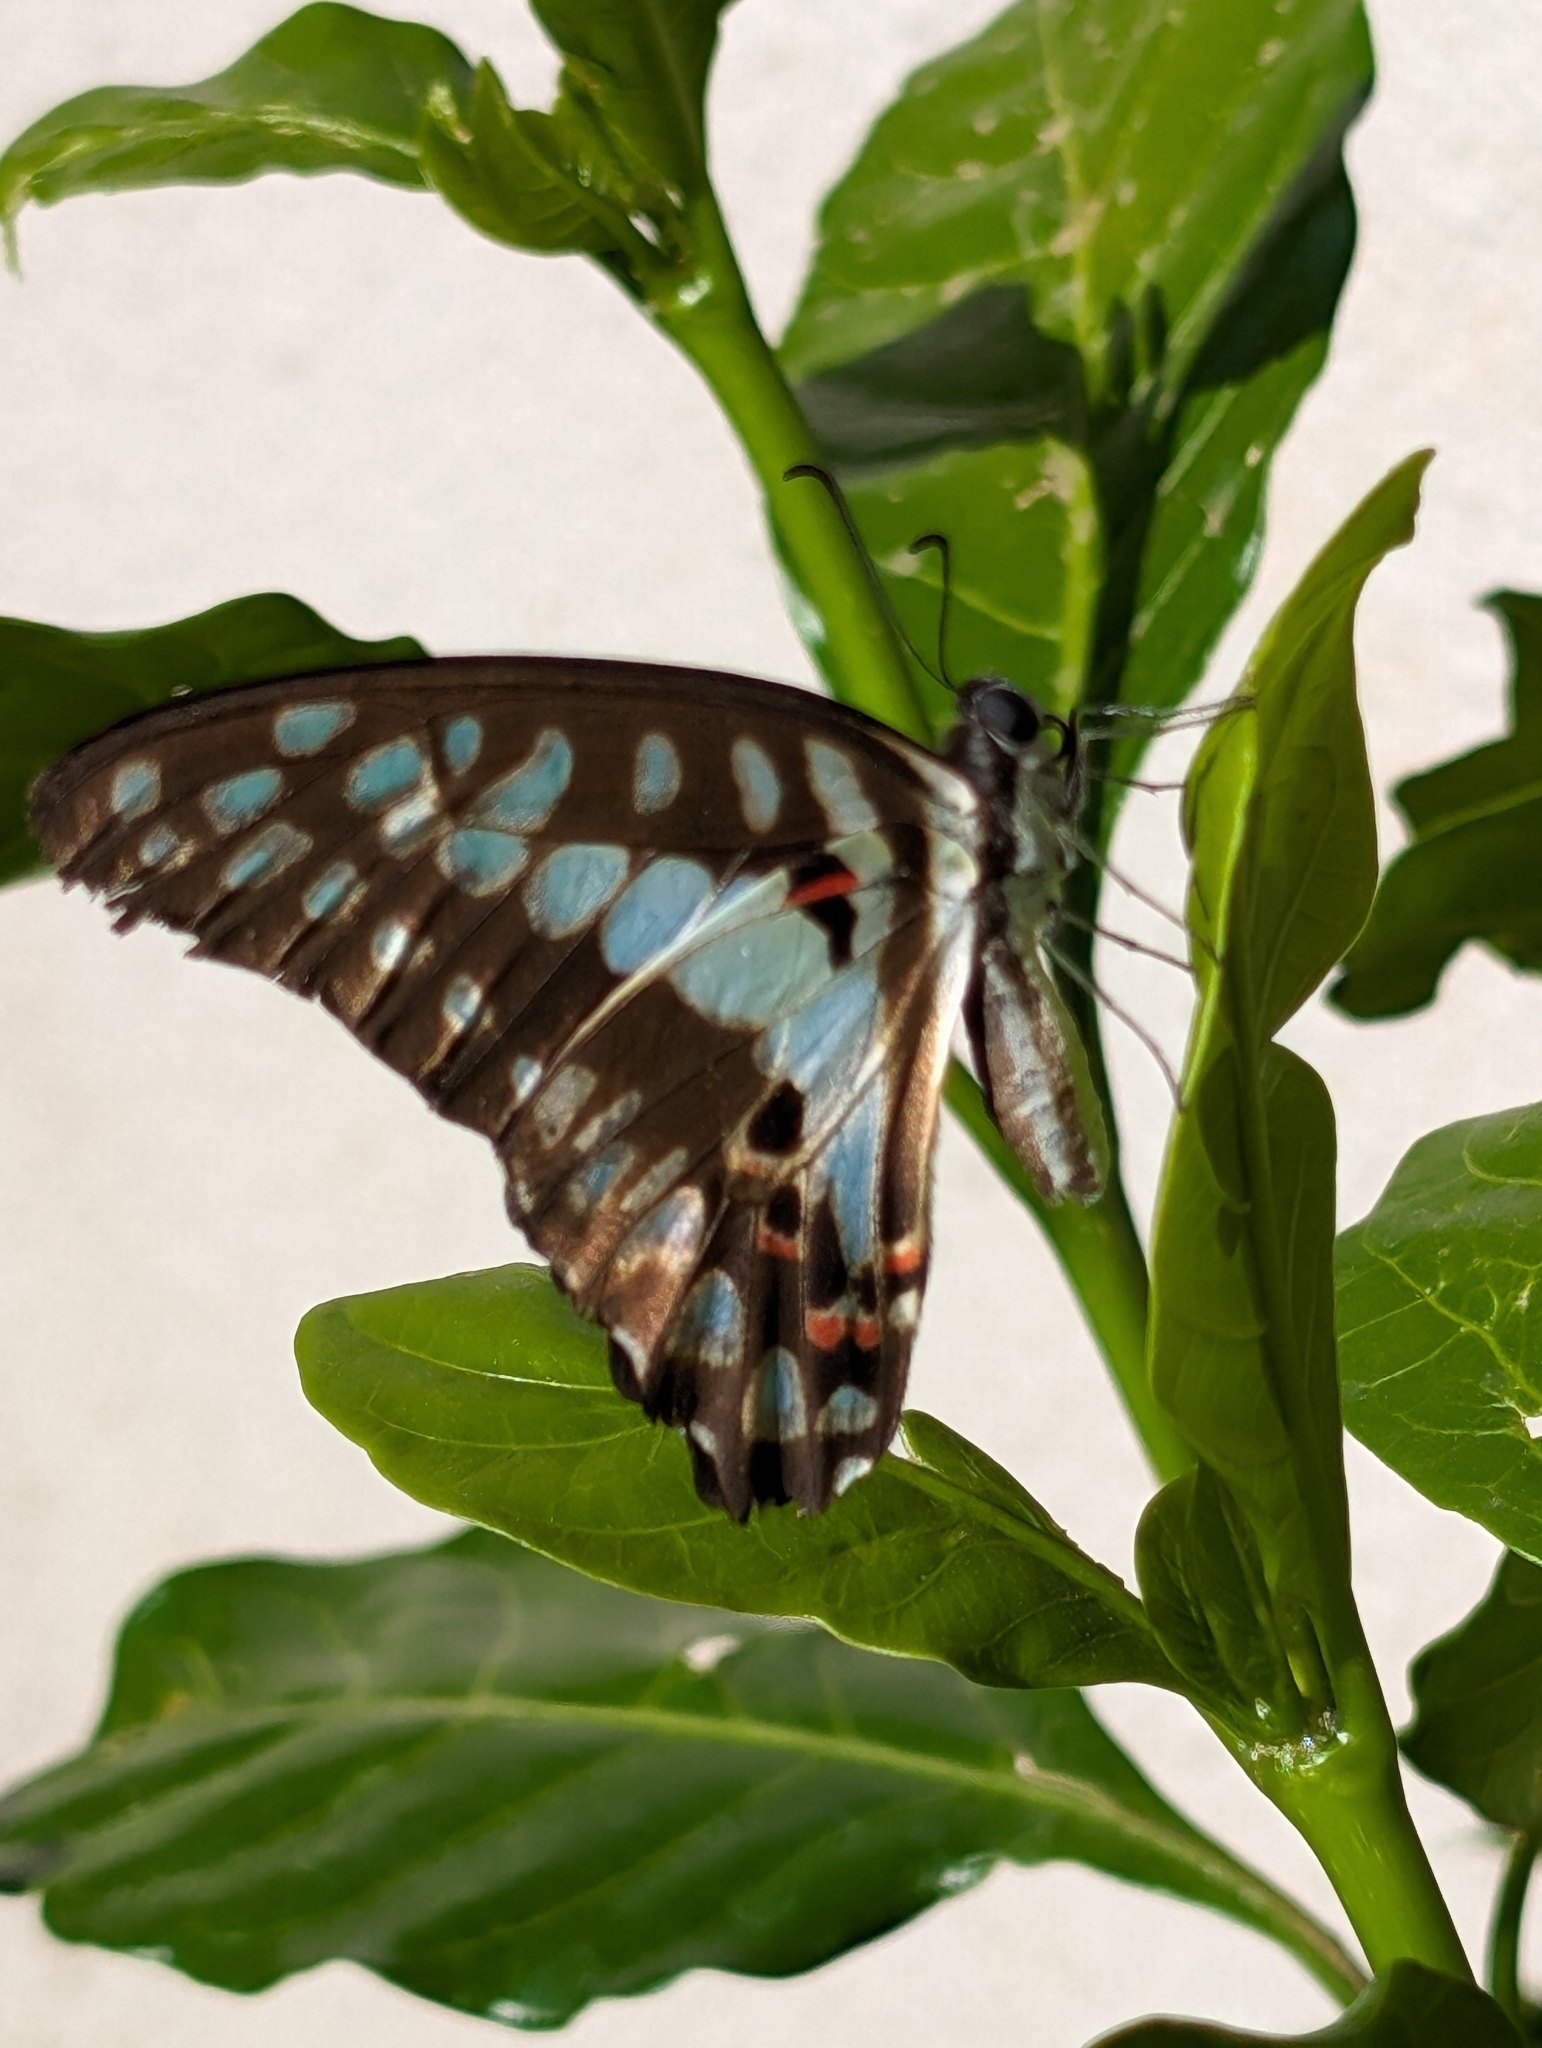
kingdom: Animalia
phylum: Arthropoda
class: Insecta
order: Lepidoptera
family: Papilionidae
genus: Graphium
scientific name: Graphium doson
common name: Common jay
